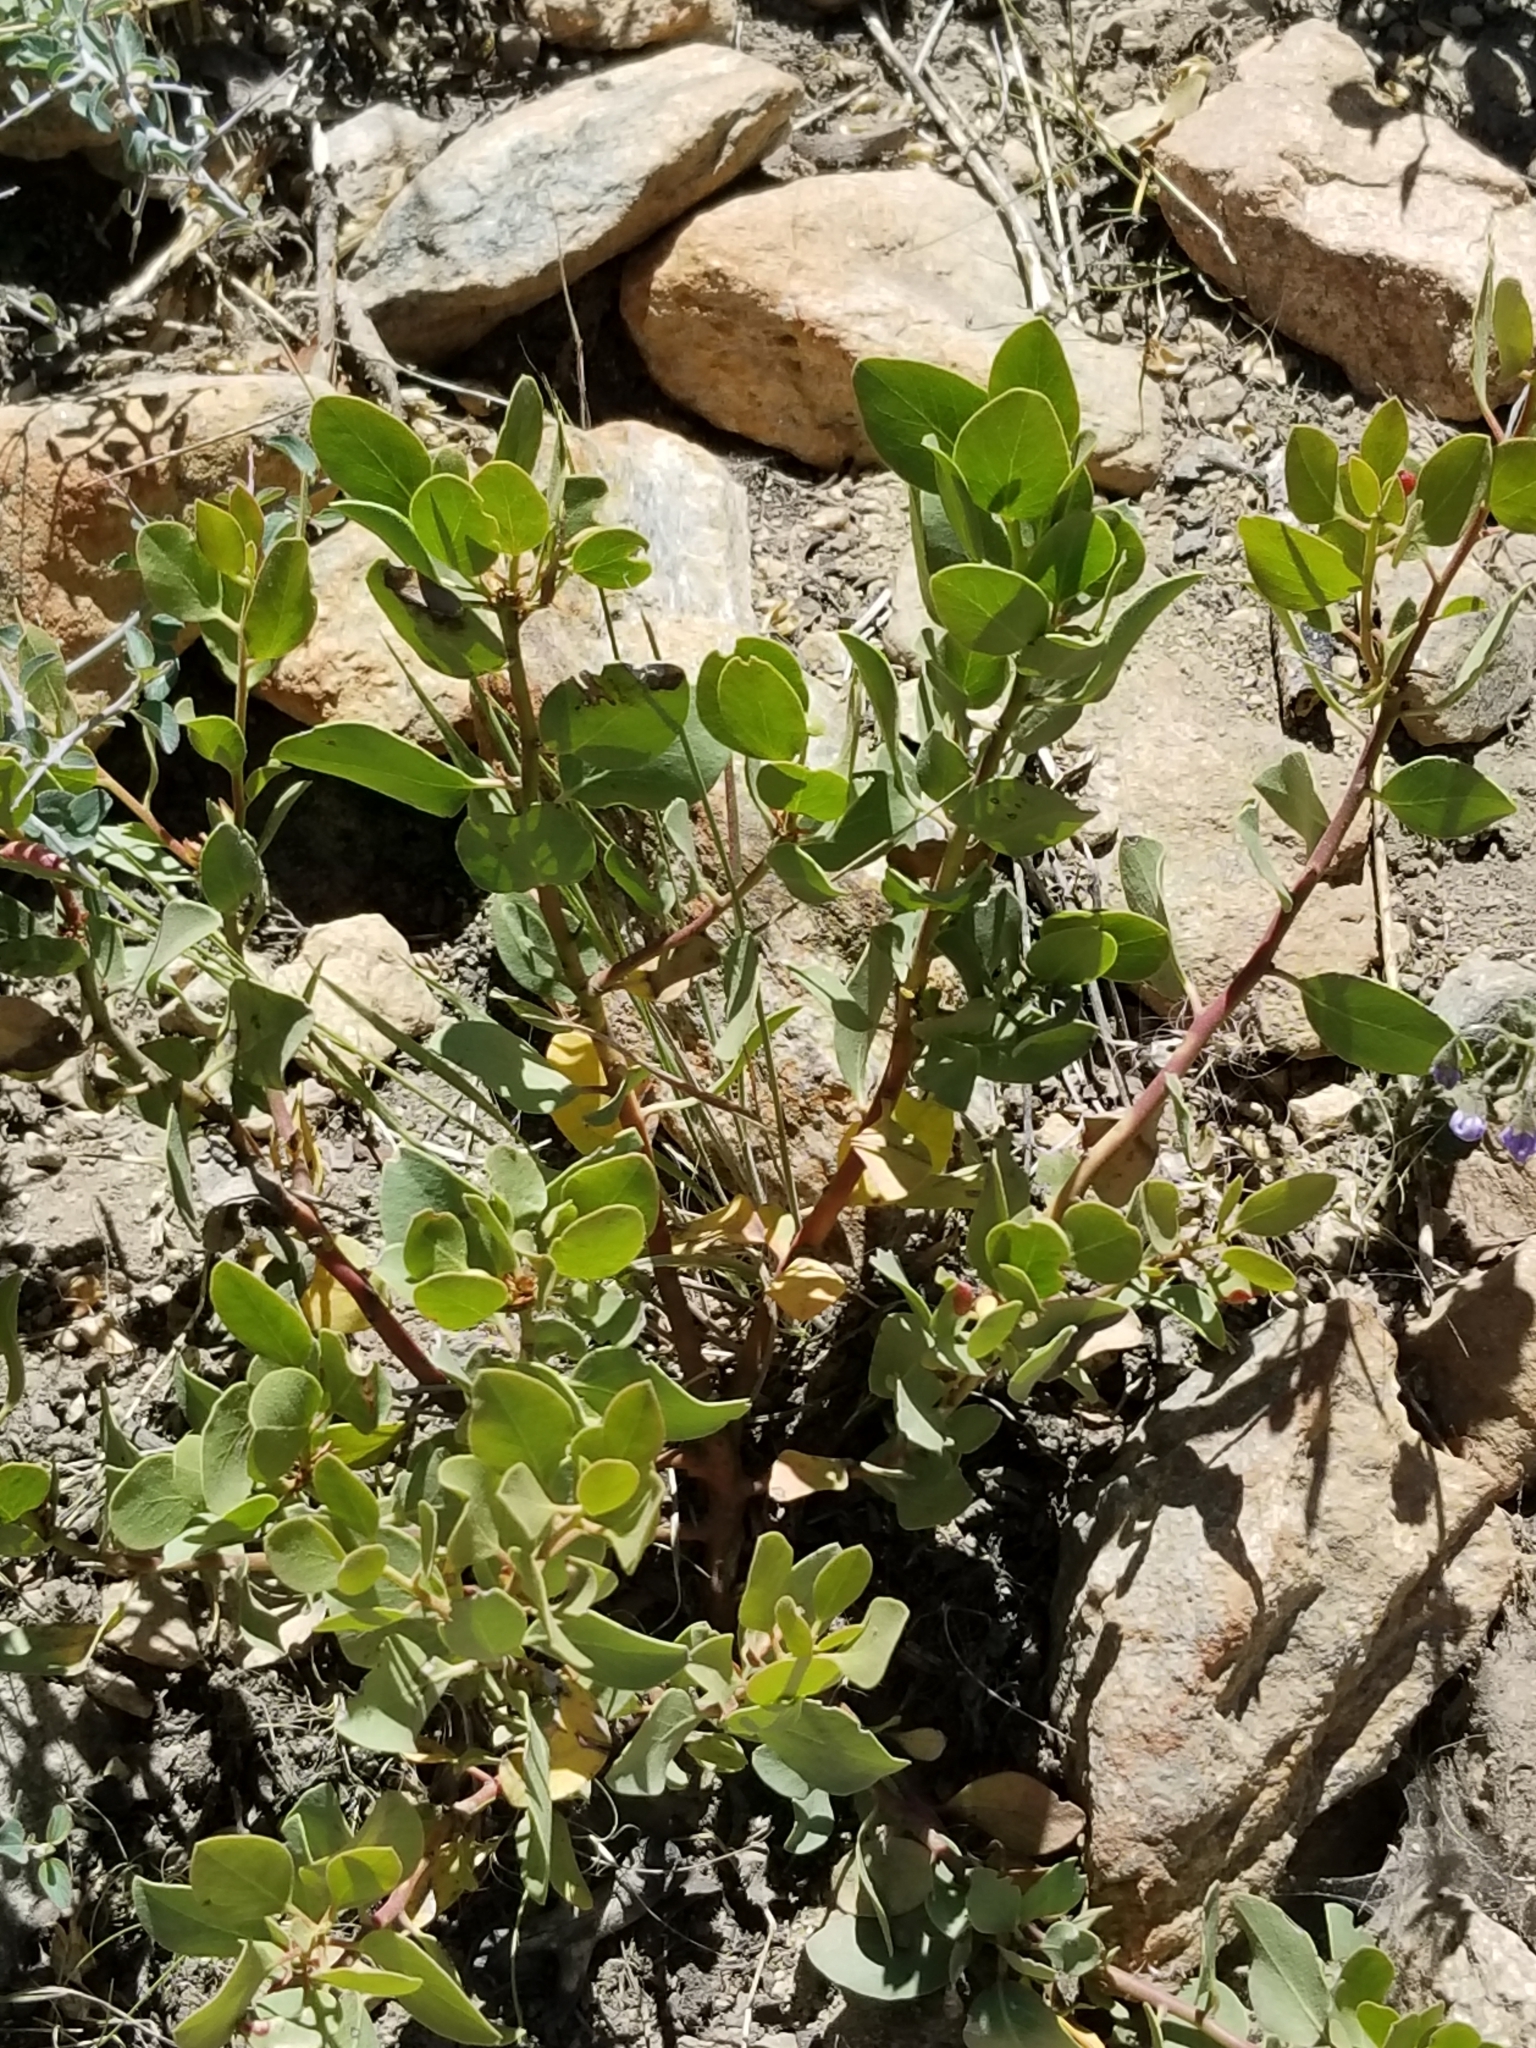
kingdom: Plantae
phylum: Tracheophyta
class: Magnoliopsida
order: Ericales
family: Ericaceae
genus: Arctostaphylos
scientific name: Arctostaphylos patula
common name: Green-leaf manzanita
